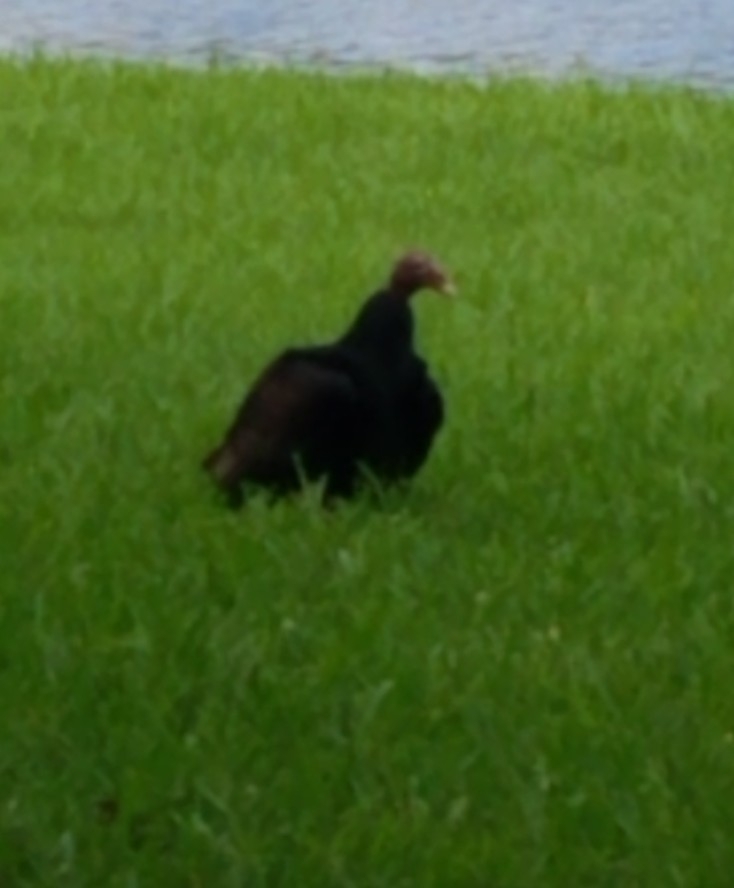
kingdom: Animalia
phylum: Chordata
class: Aves
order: Accipitriformes
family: Cathartidae
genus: Cathartes
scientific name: Cathartes aura
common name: Turkey vulture
